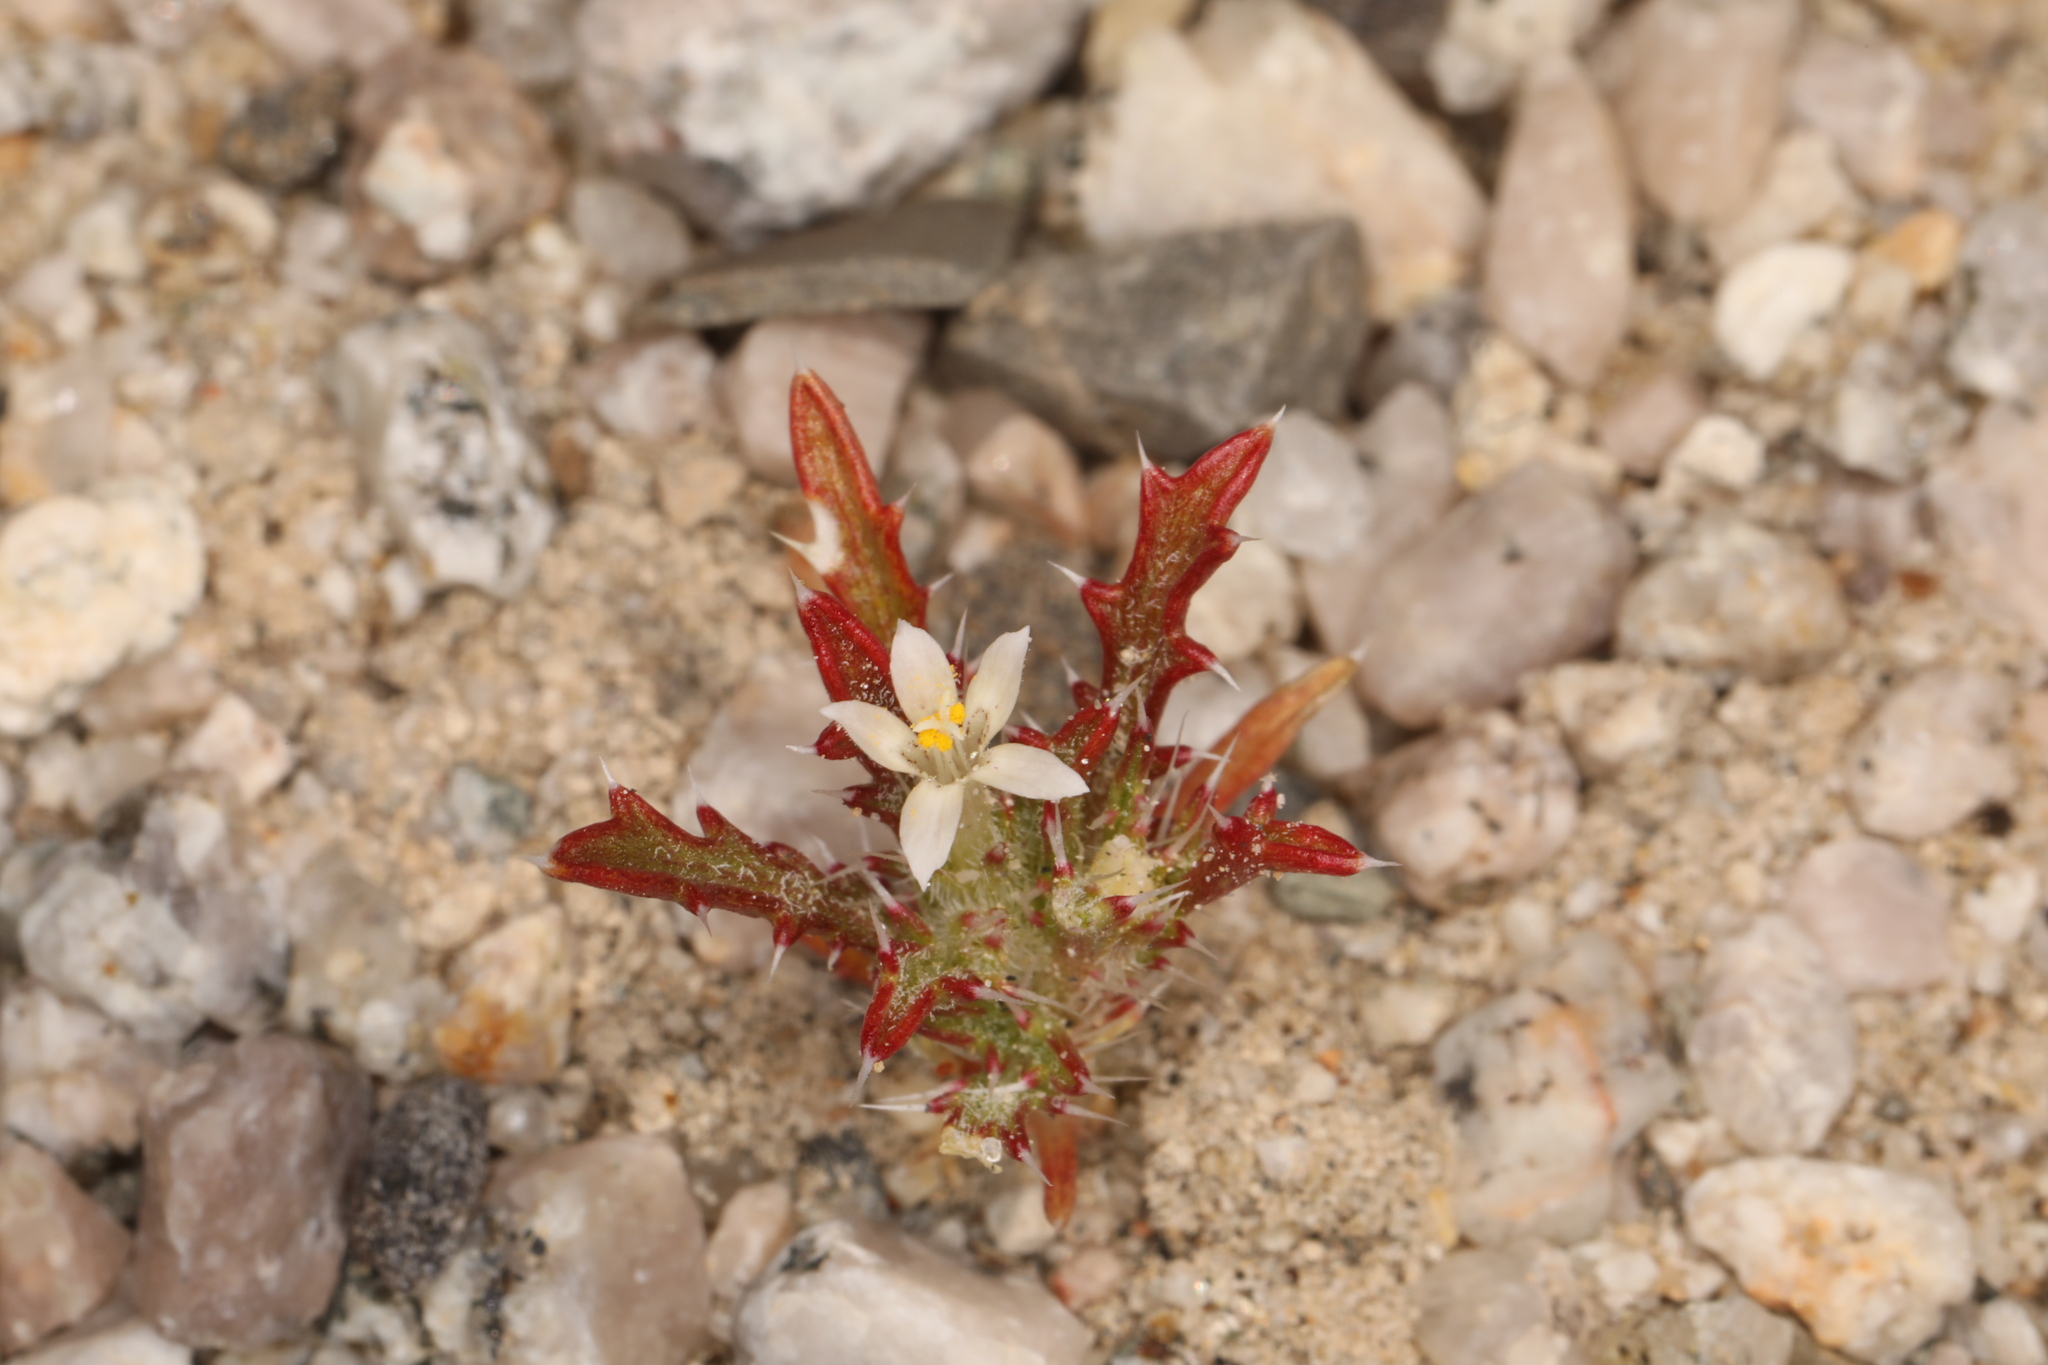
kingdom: Plantae
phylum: Tracheophyta
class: Magnoliopsida
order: Ericales
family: Polemoniaceae
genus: Loeseliastrum
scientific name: Loeseliastrum schottii
